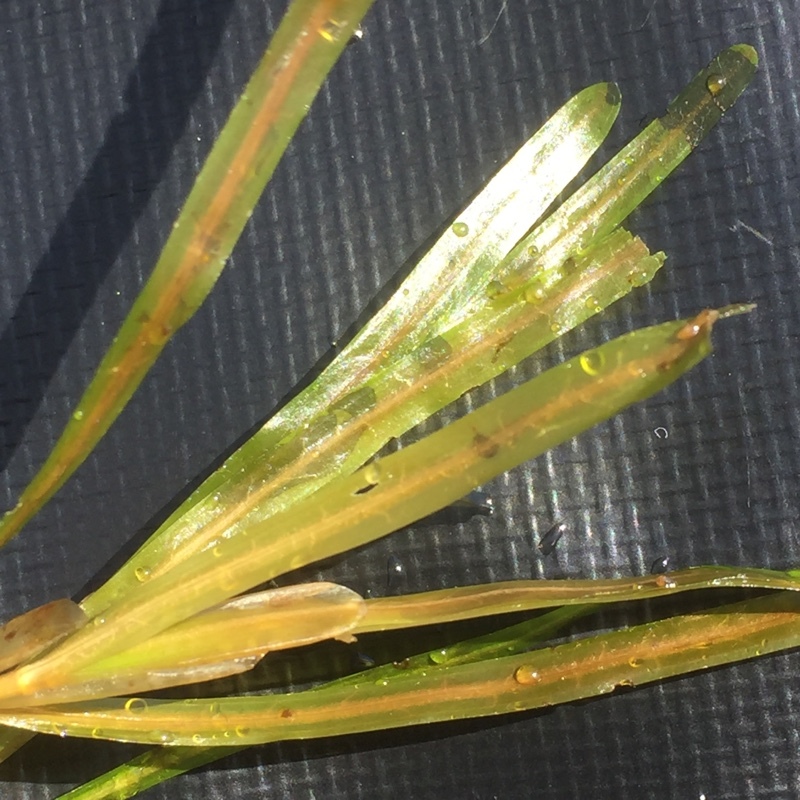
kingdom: Plantae
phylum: Tracheophyta
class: Liliopsida
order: Alismatales
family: Potamogetonaceae
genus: Potamogeton
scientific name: Potamogeton compressus
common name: Grass-wrack pondweed
